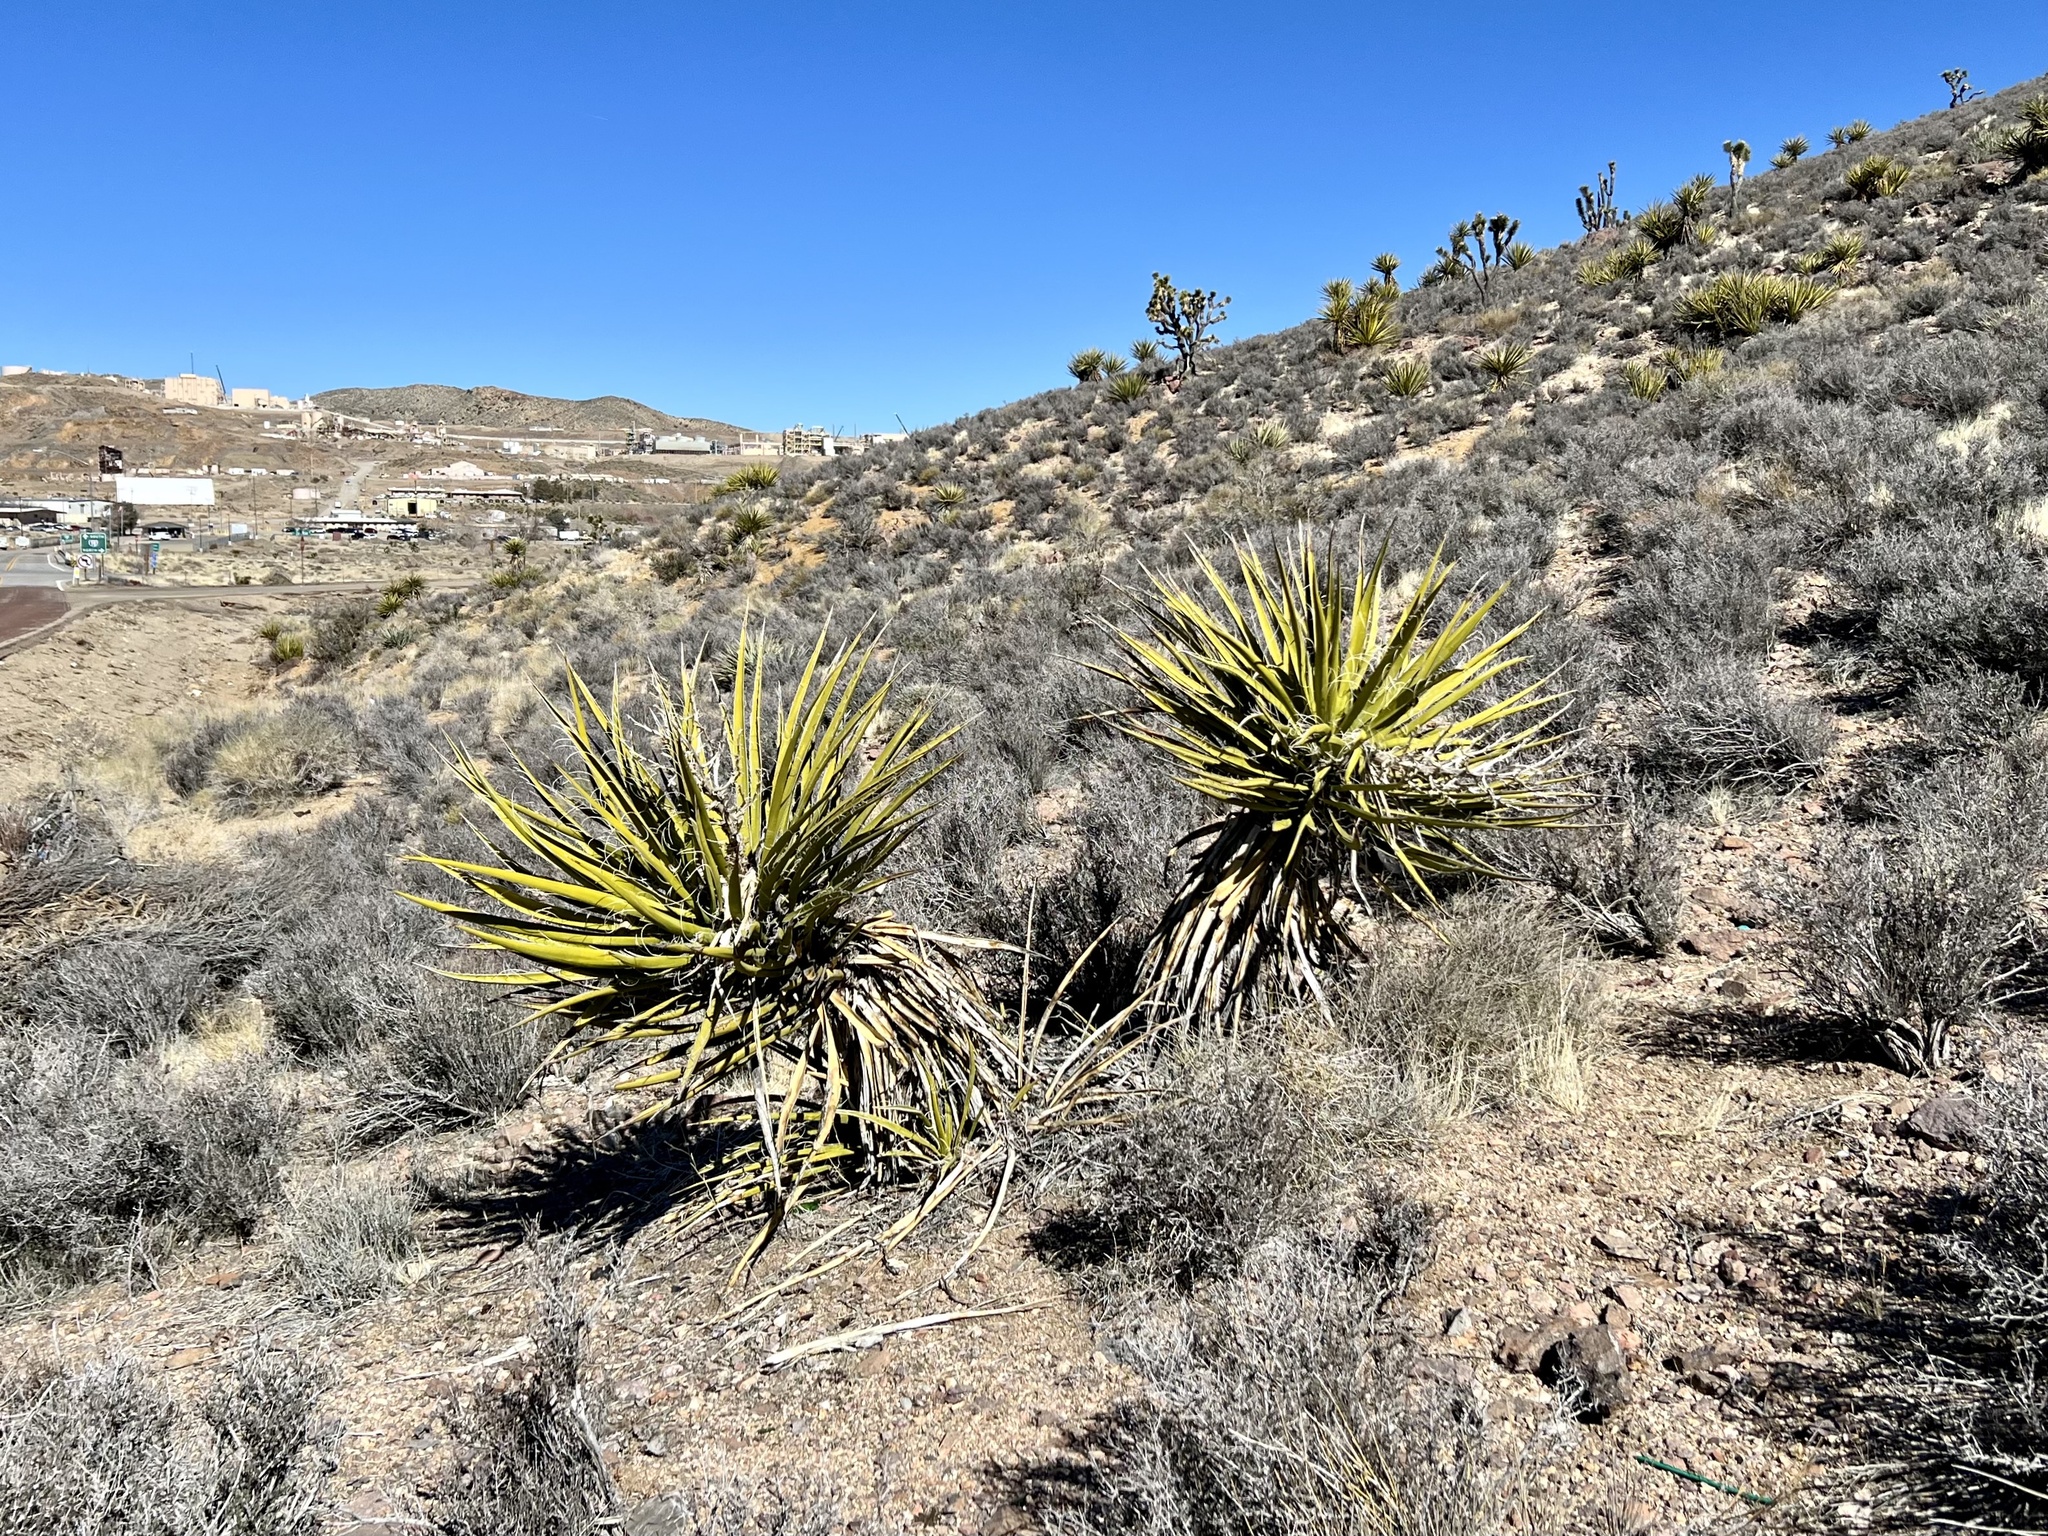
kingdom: Plantae
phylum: Tracheophyta
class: Liliopsida
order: Asparagales
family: Asparagaceae
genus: Yucca
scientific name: Yucca schidigera
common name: Mojave yucca
